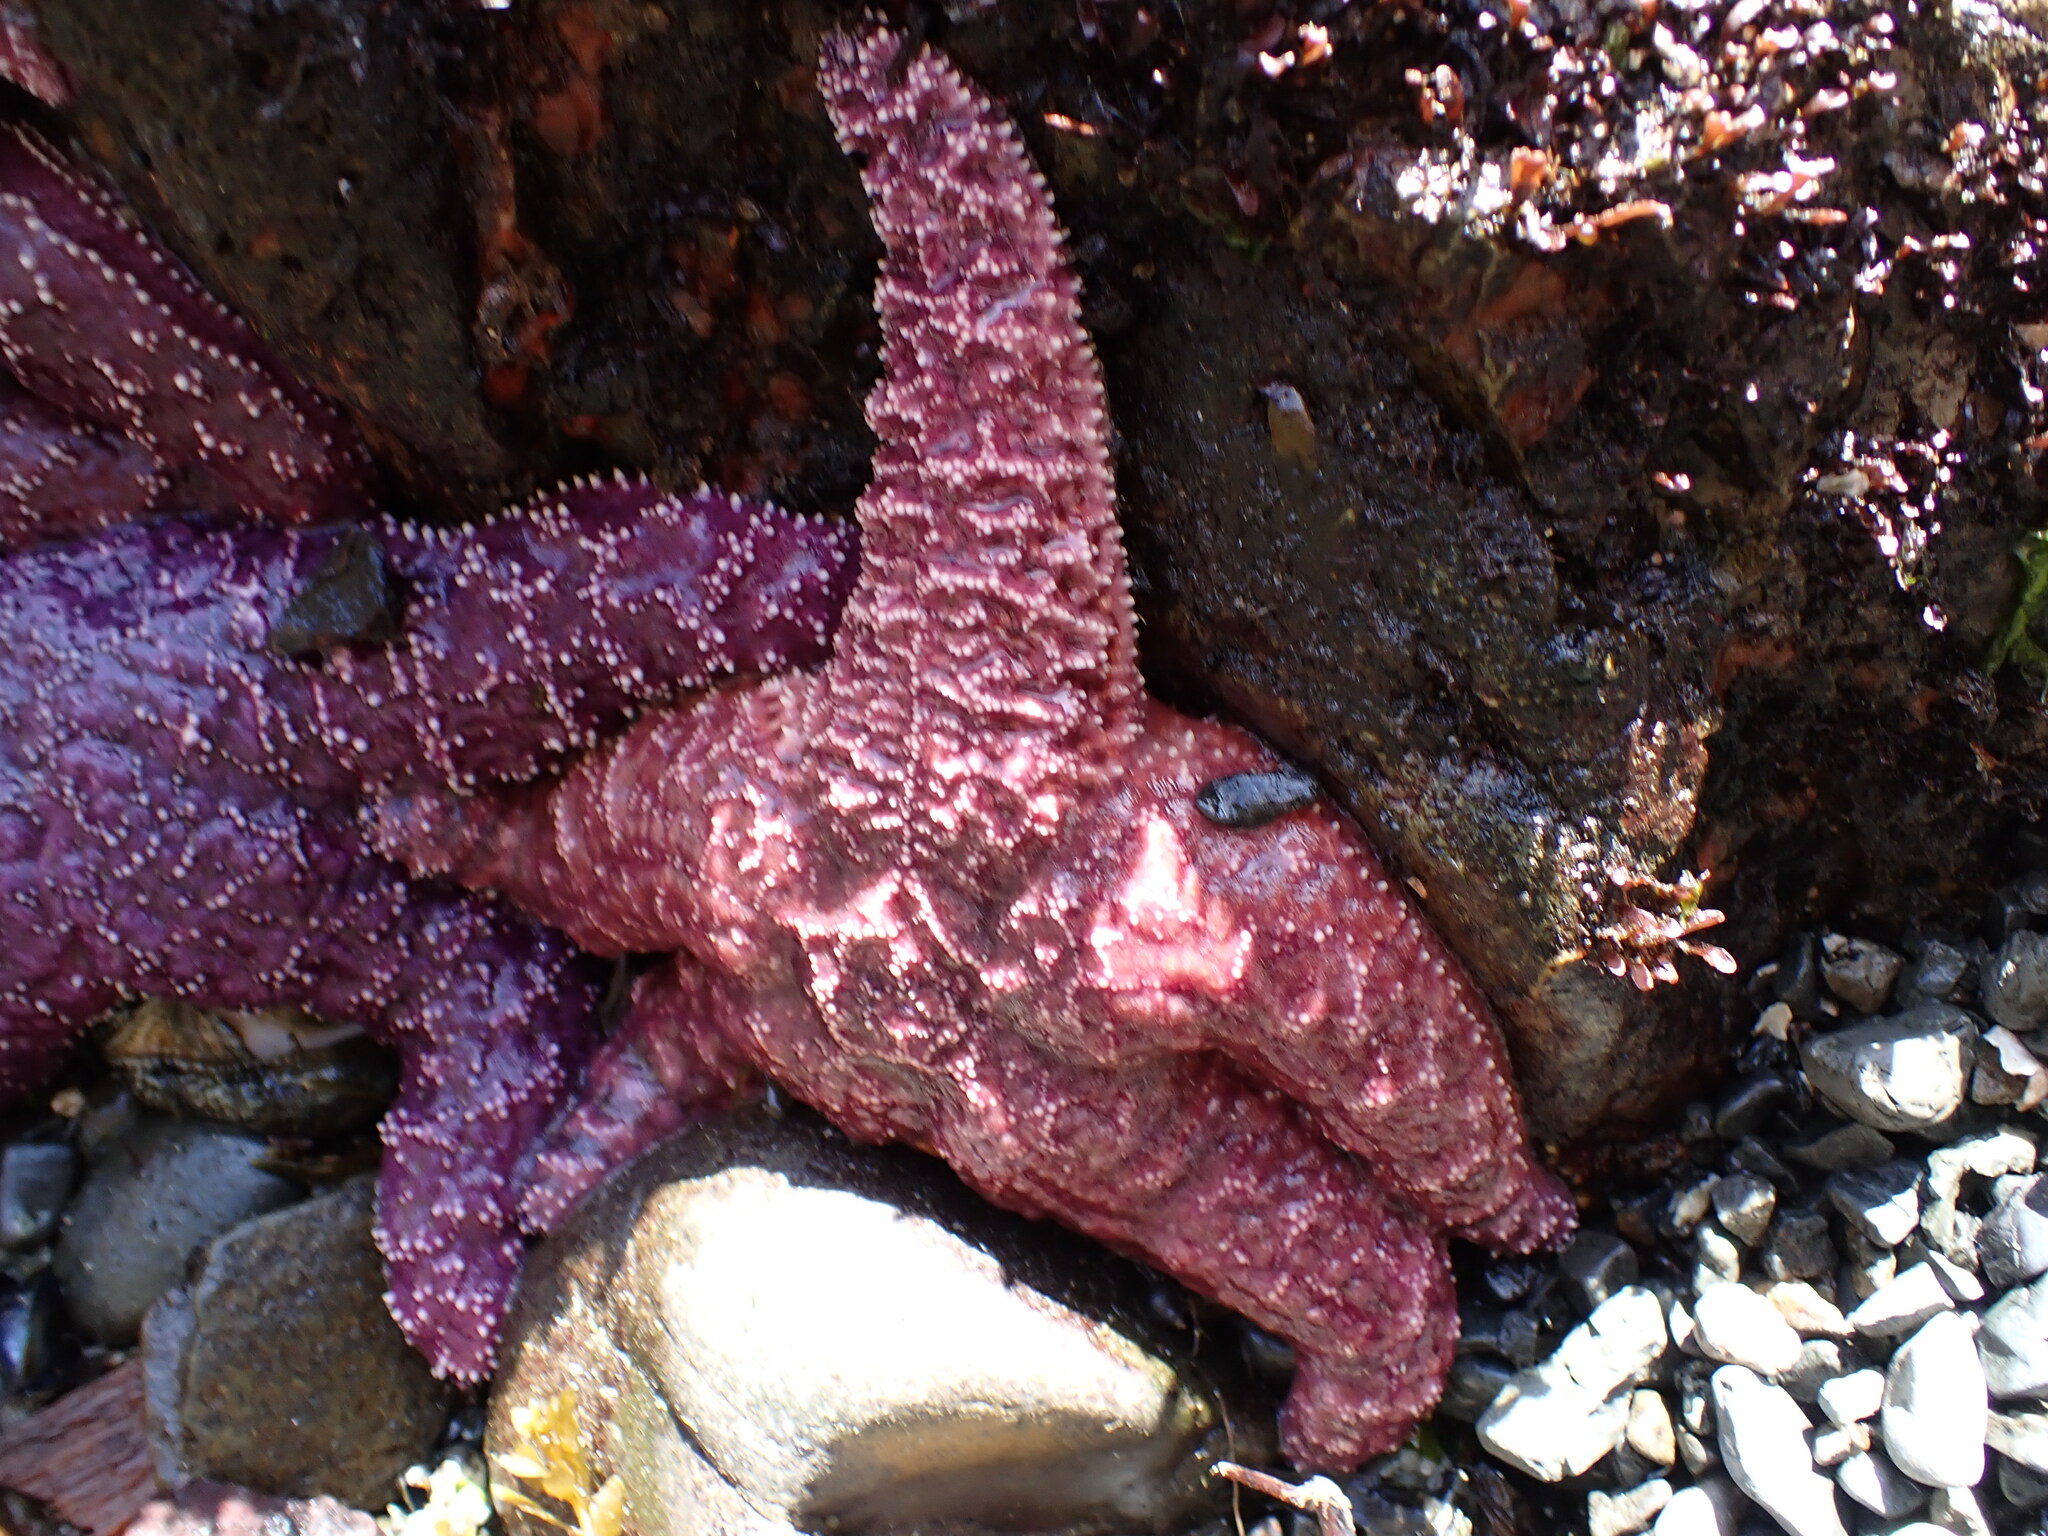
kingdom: Animalia
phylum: Echinodermata
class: Asteroidea
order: Forcipulatida
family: Asteriidae
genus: Pisaster
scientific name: Pisaster ochraceus
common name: Ochre stars
